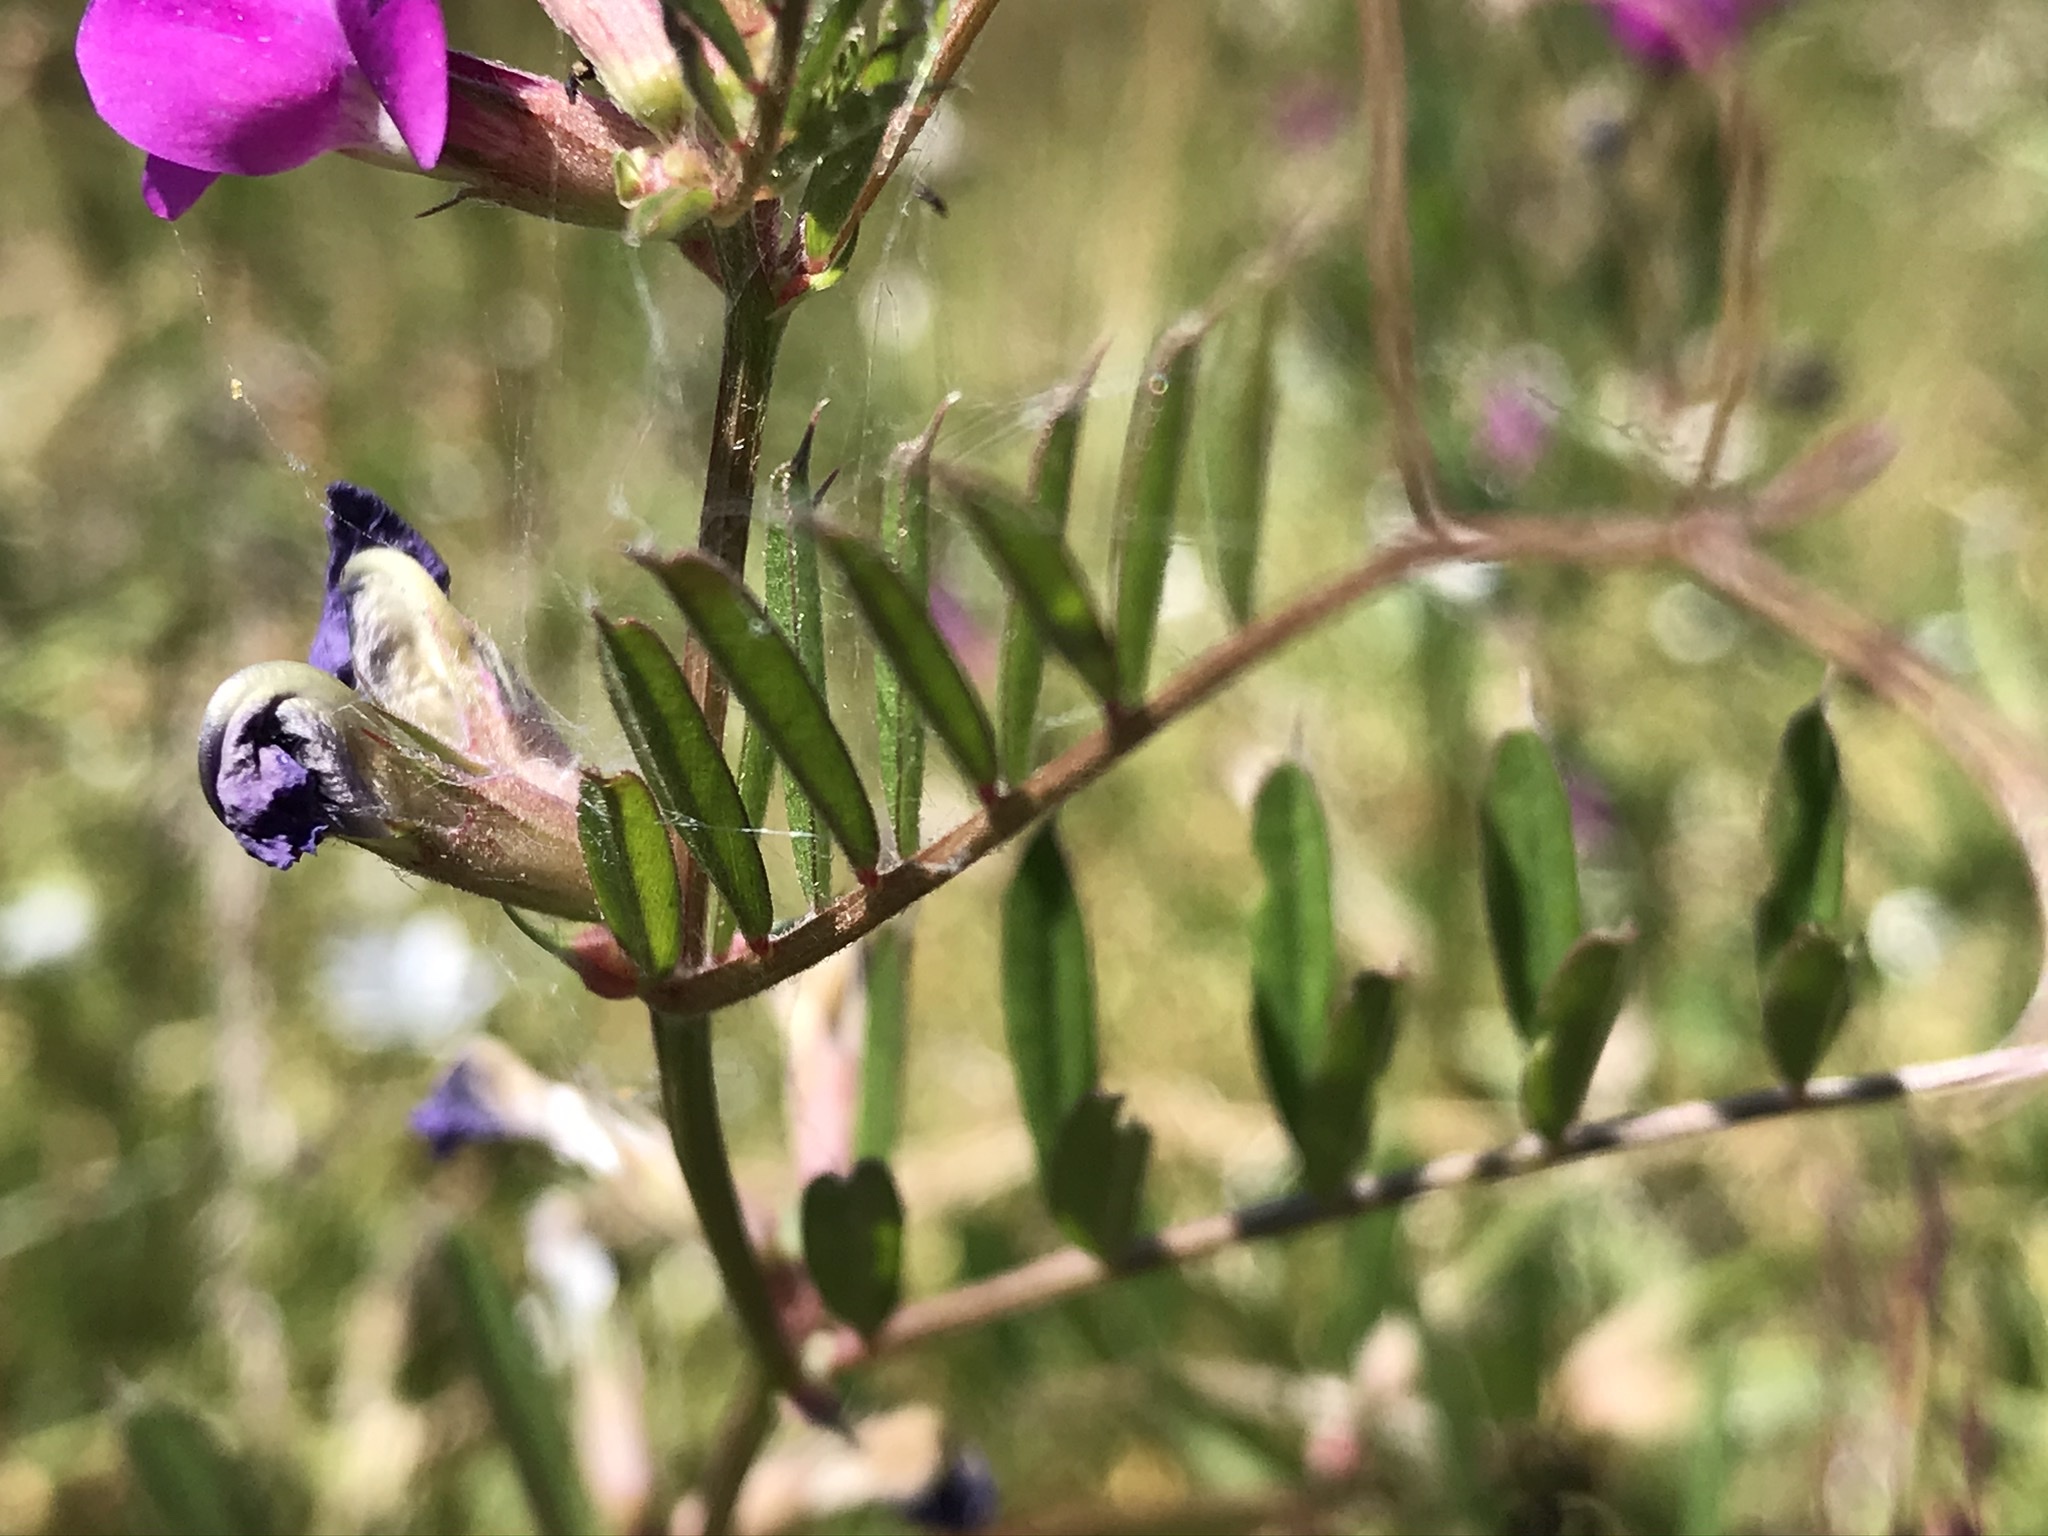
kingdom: Plantae
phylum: Tracheophyta
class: Magnoliopsida
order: Fabales
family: Fabaceae
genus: Vicia
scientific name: Vicia sativa
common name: Garden vetch
